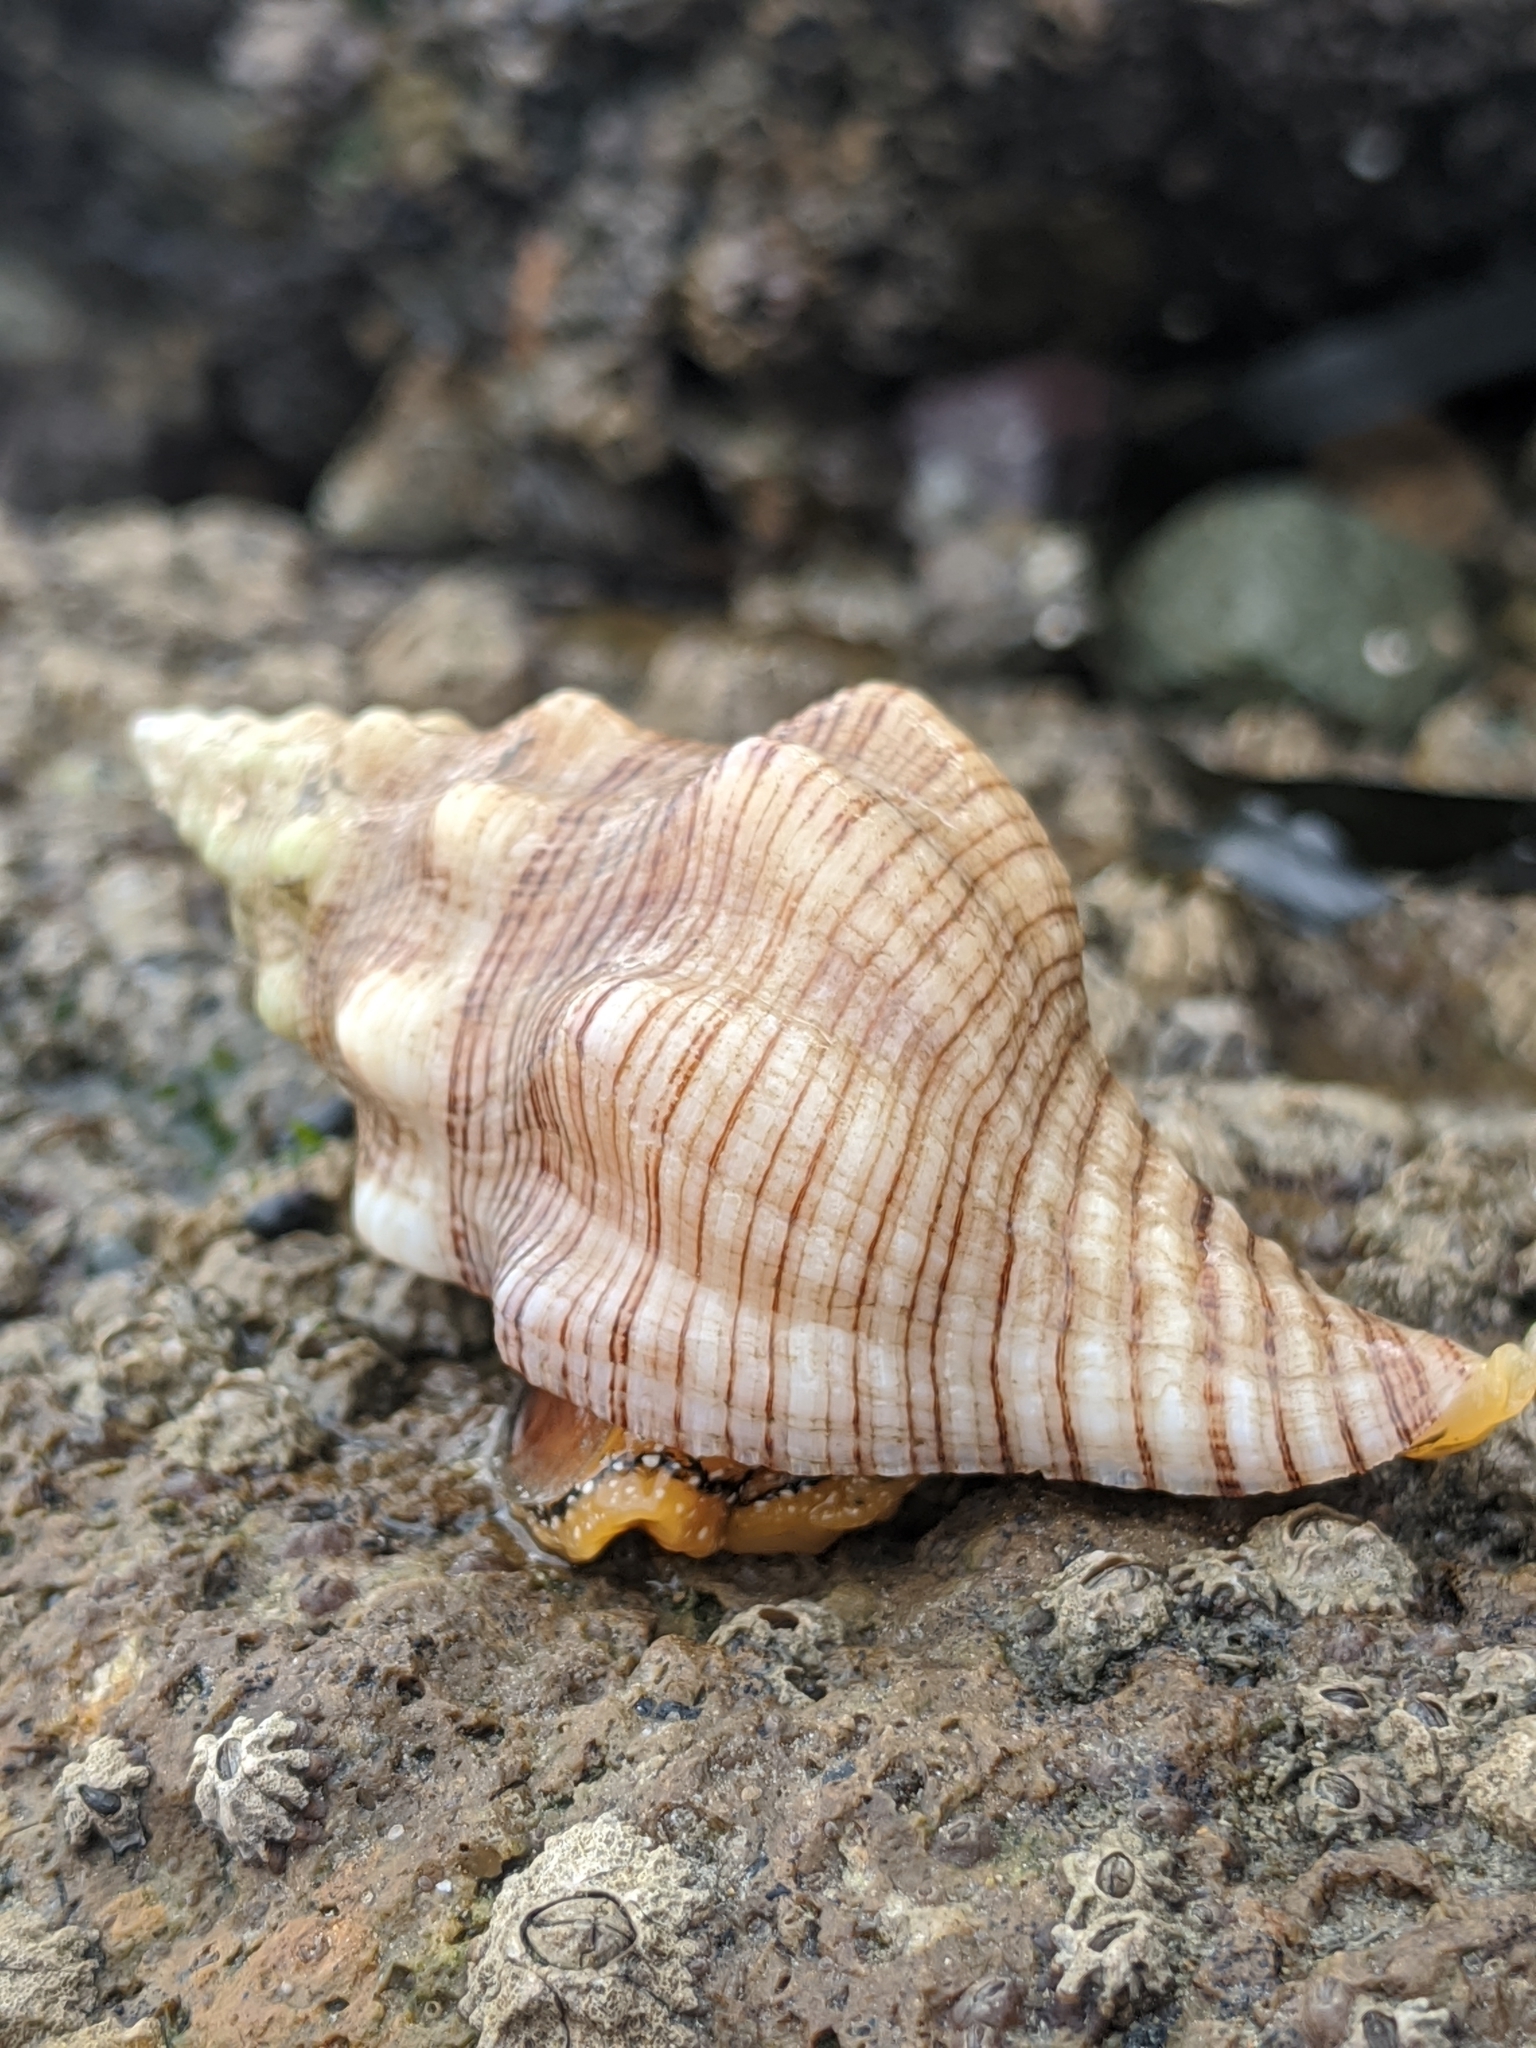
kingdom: Animalia
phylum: Mollusca
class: Gastropoda
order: Neogastropoda
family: Austrosiphonidae
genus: Kelletia
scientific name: Kelletia kelletii
